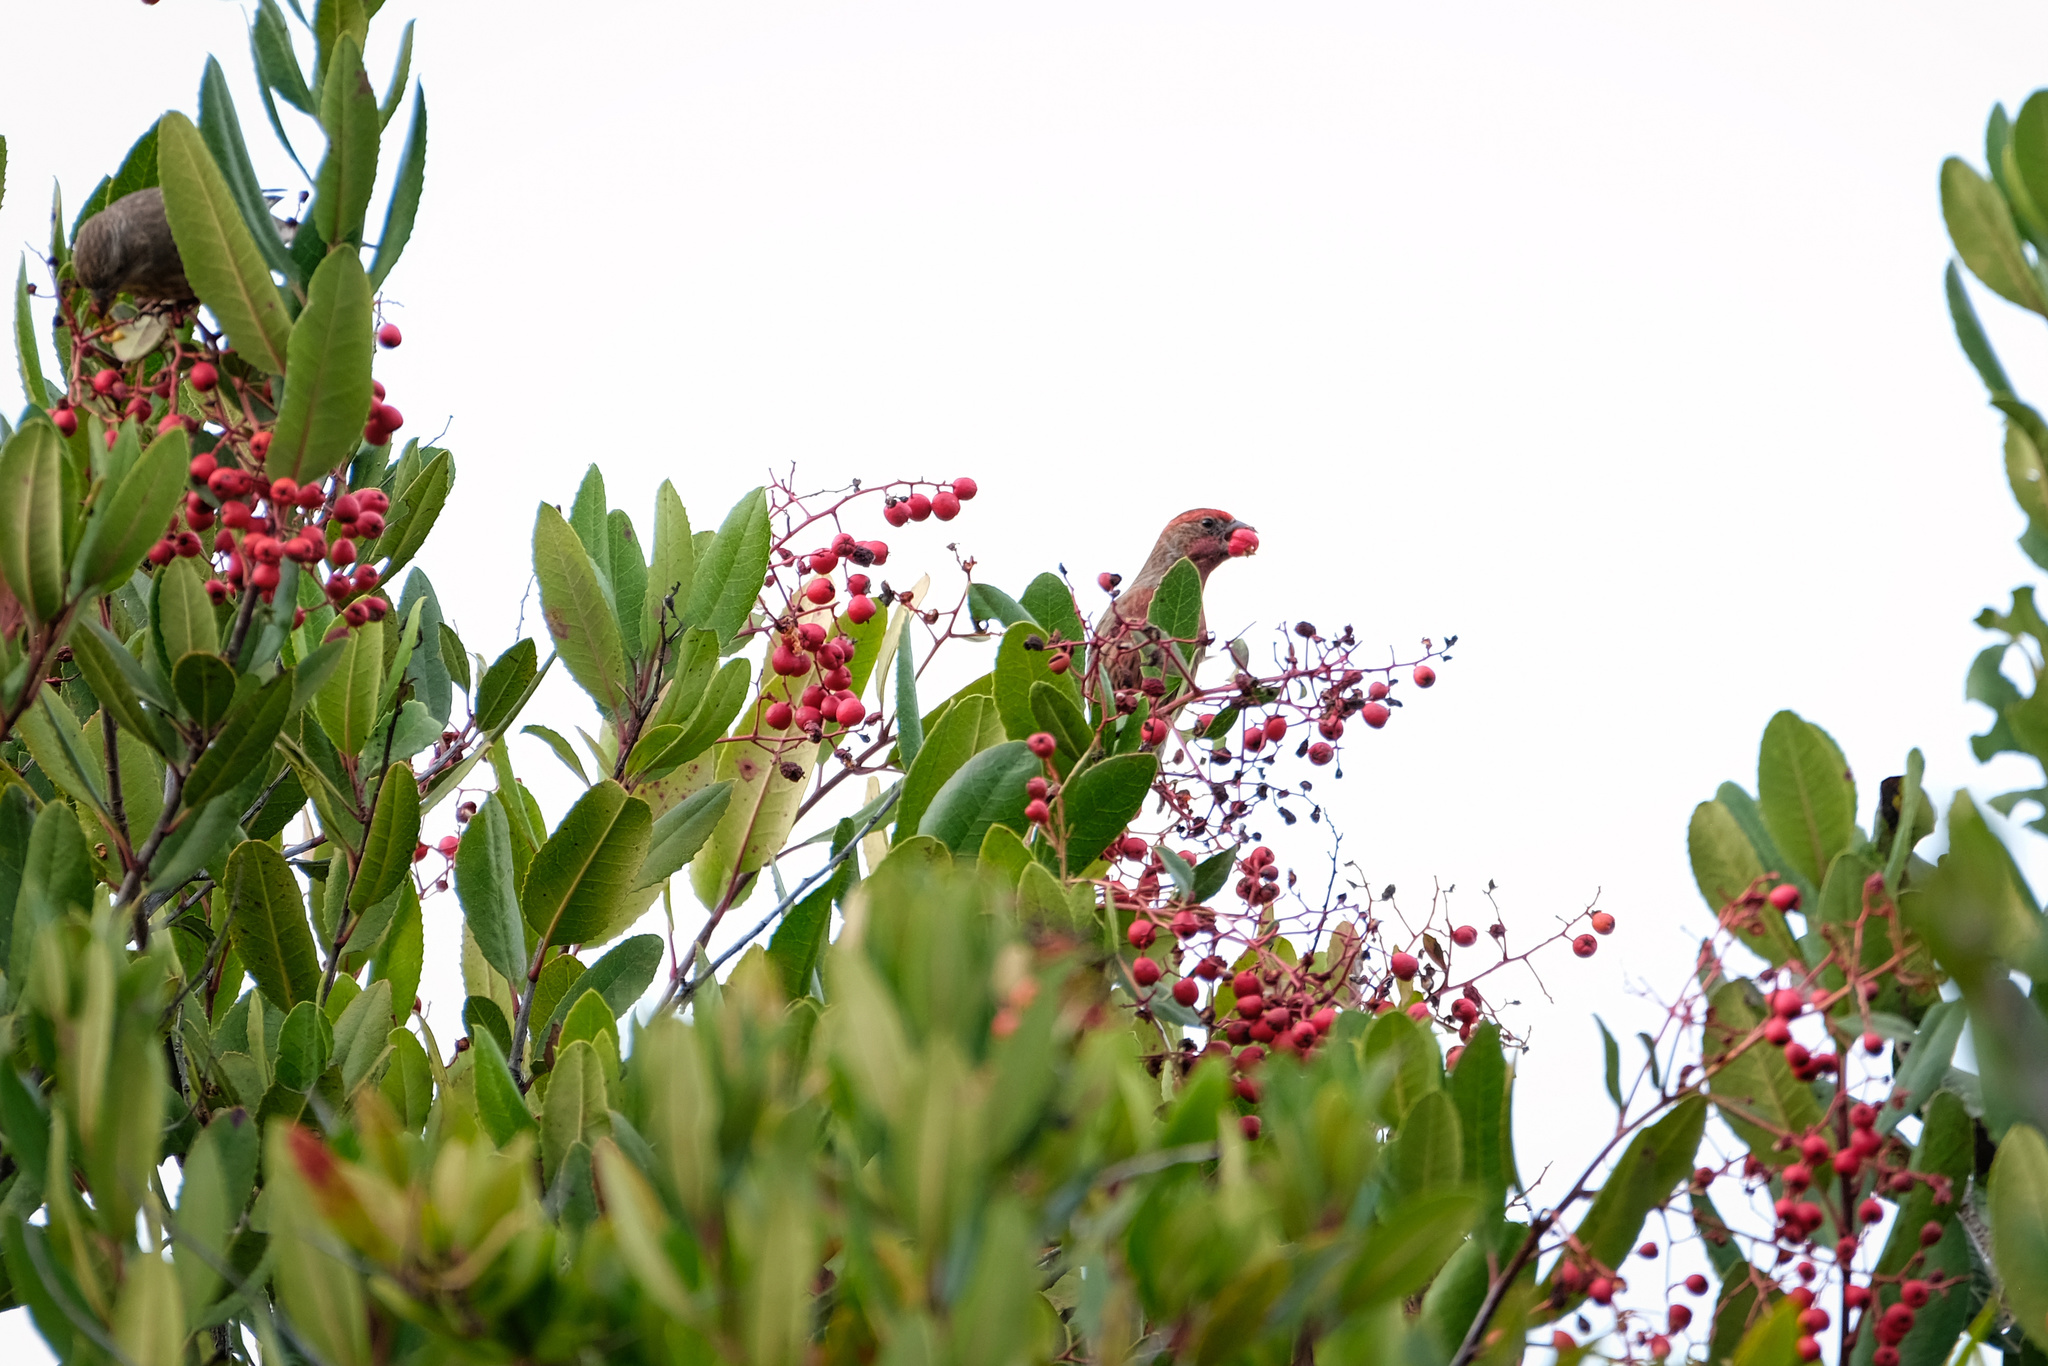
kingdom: Animalia
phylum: Chordata
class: Aves
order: Passeriformes
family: Fringillidae
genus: Haemorhous
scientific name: Haemorhous mexicanus
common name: House finch
